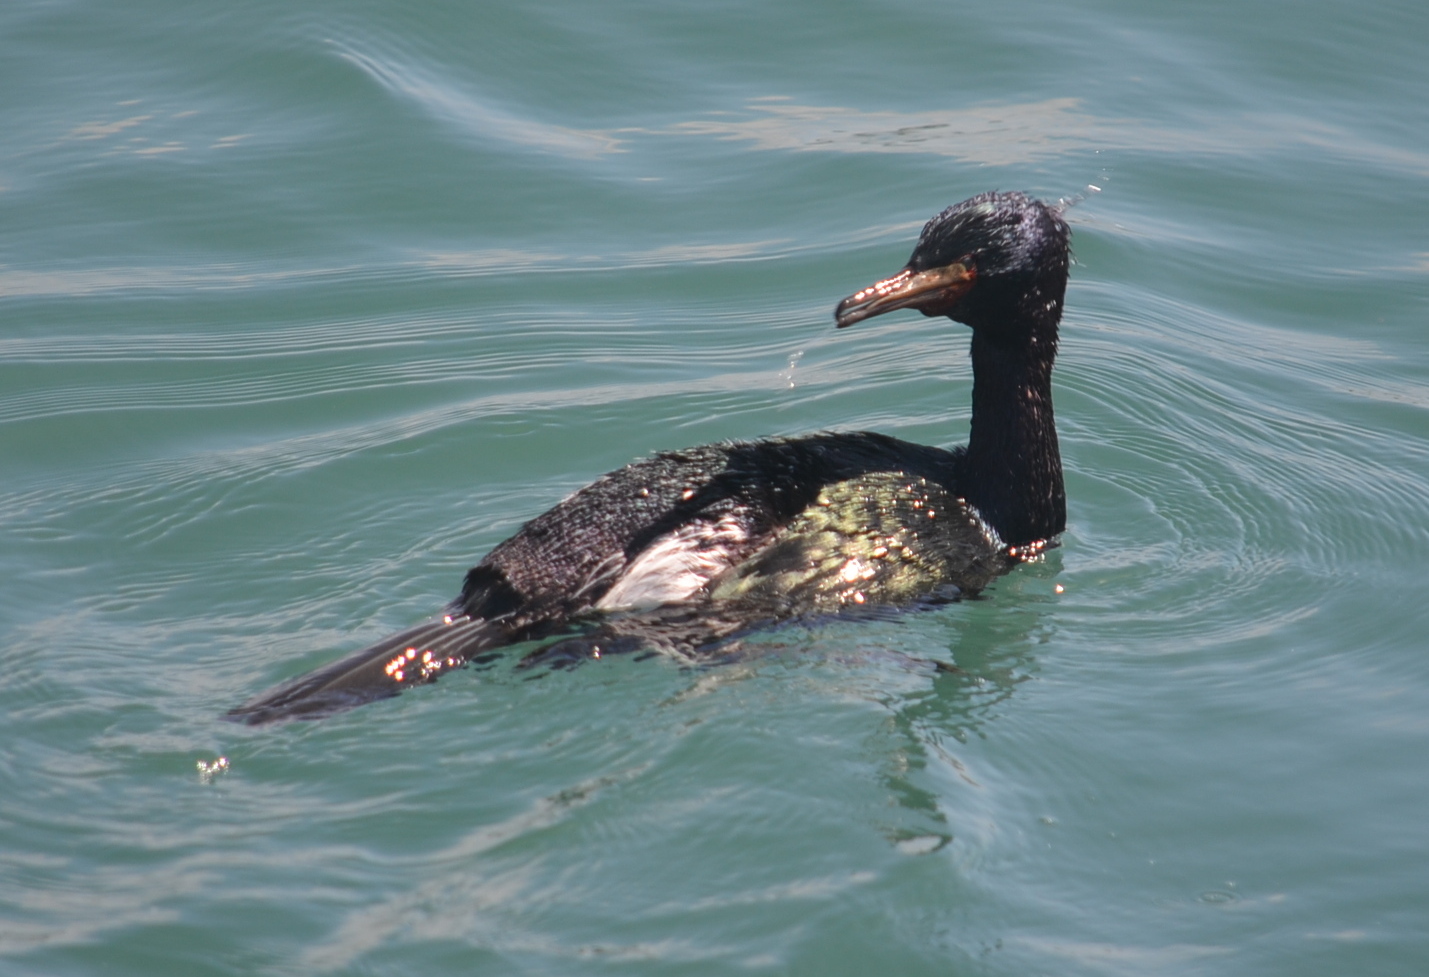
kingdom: Animalia
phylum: Chordata
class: Aves
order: Suliformes
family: Phalacrocoracidae
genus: Phalacrocorax
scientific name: Phalacrocorax pelagicus
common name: Pelagic cormorant
